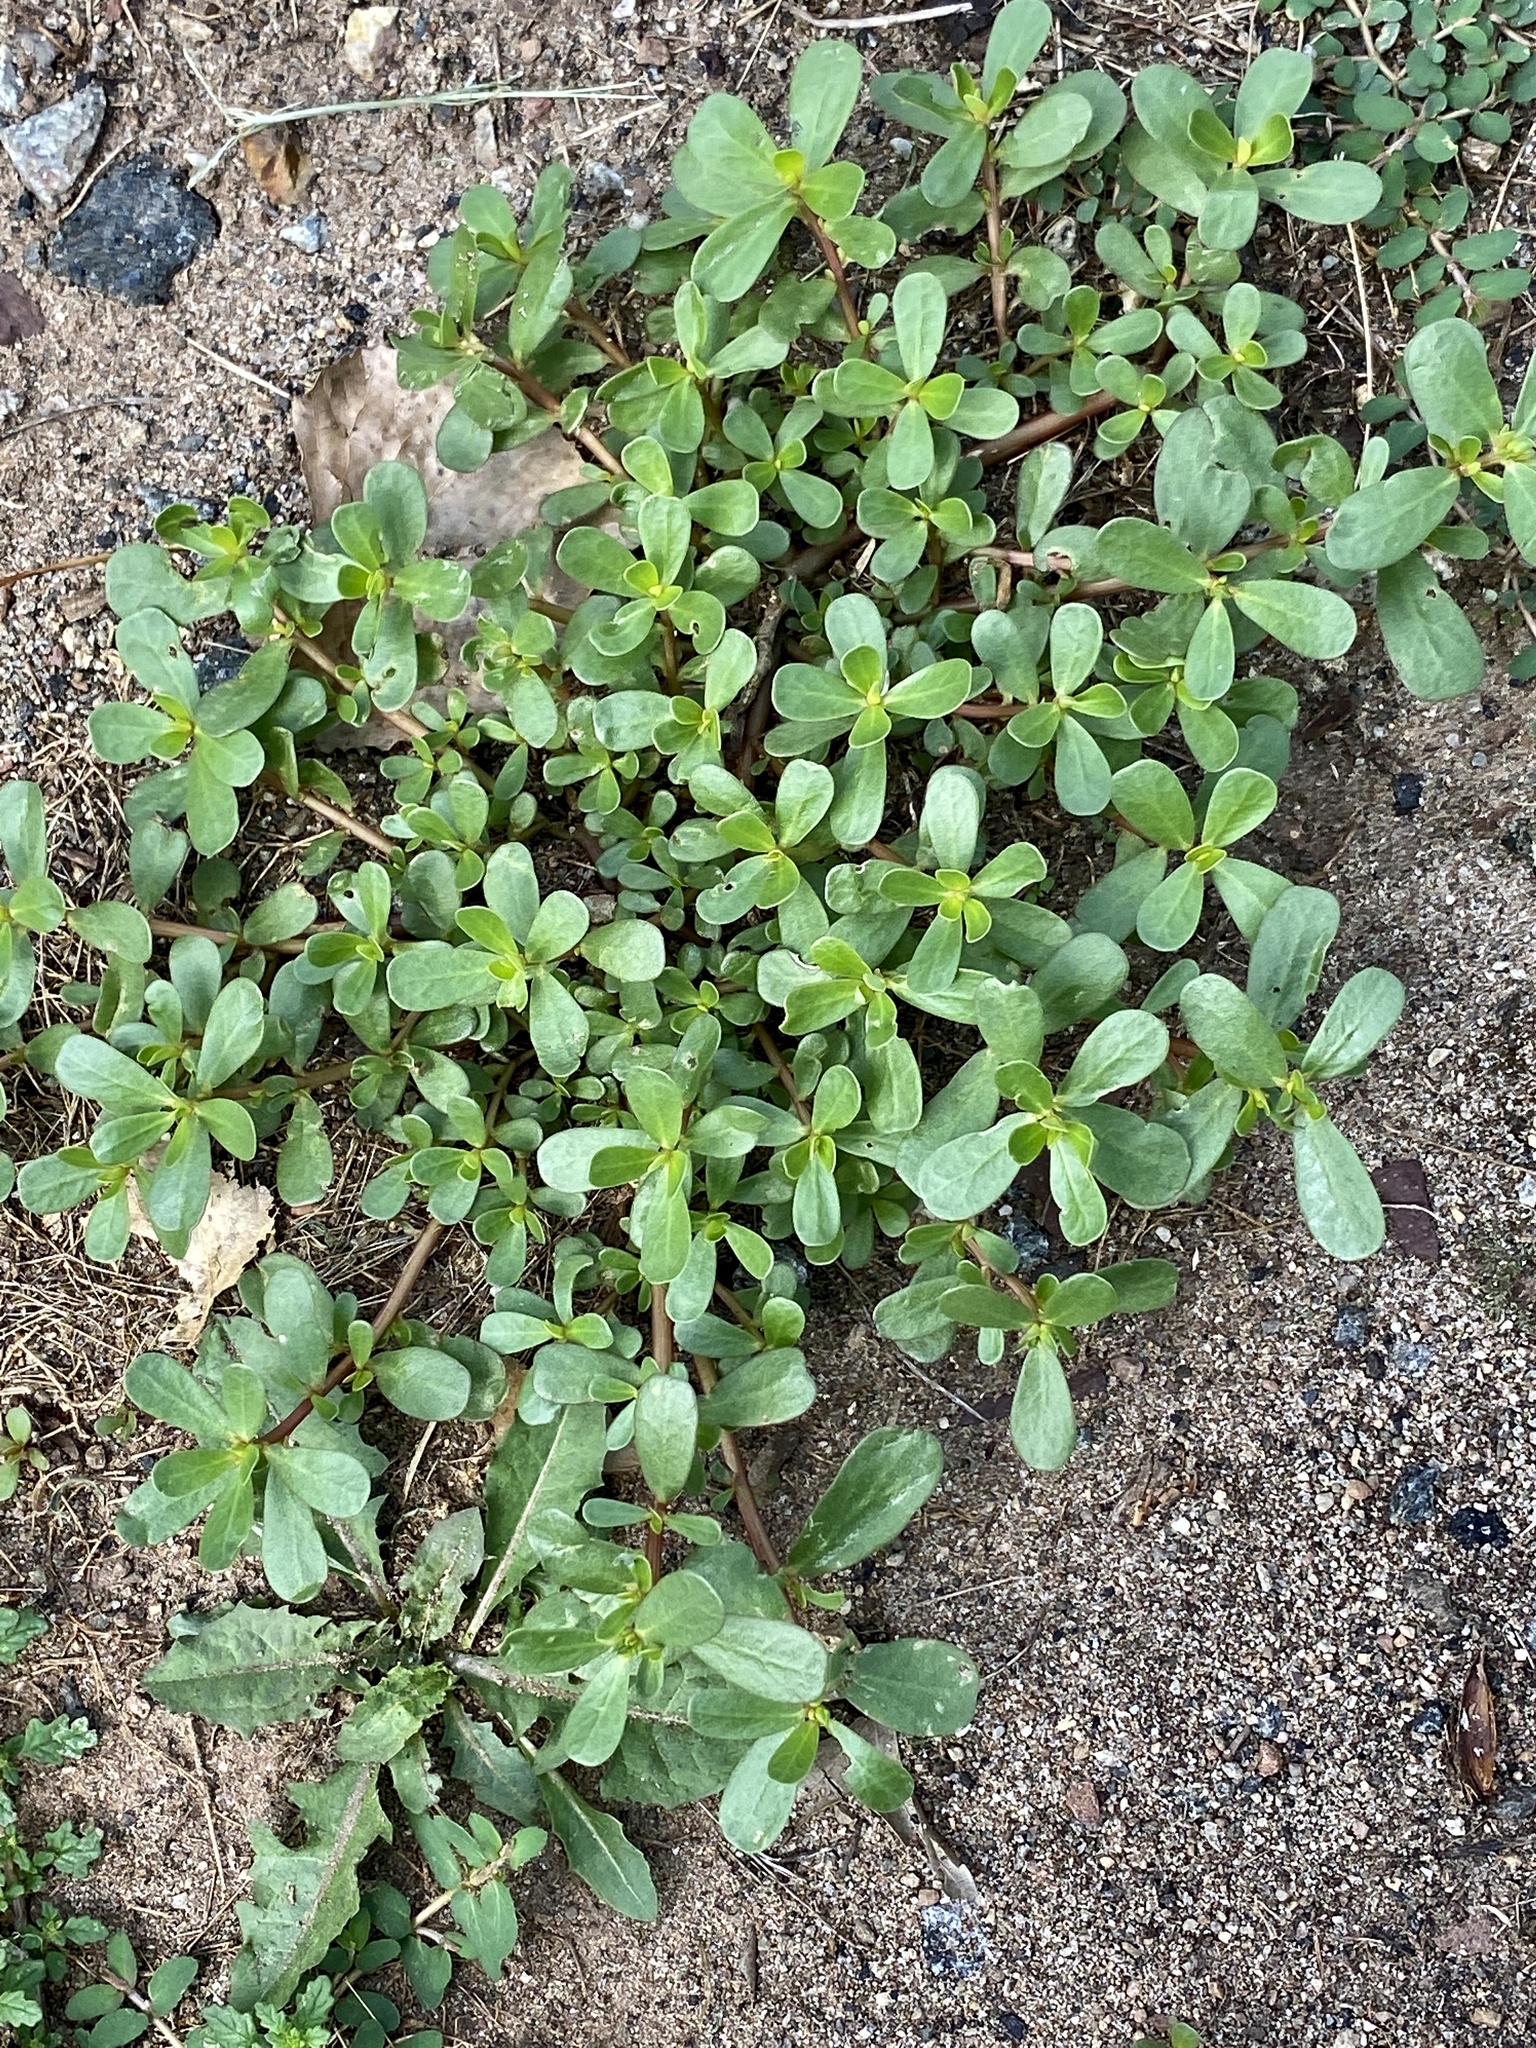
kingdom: Plantae
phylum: Tracheophyta
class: Magnoliopsida
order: Caryophyllales
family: Portulacaceae
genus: Portulaca
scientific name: Portulaca oleracea
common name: Common purslane
